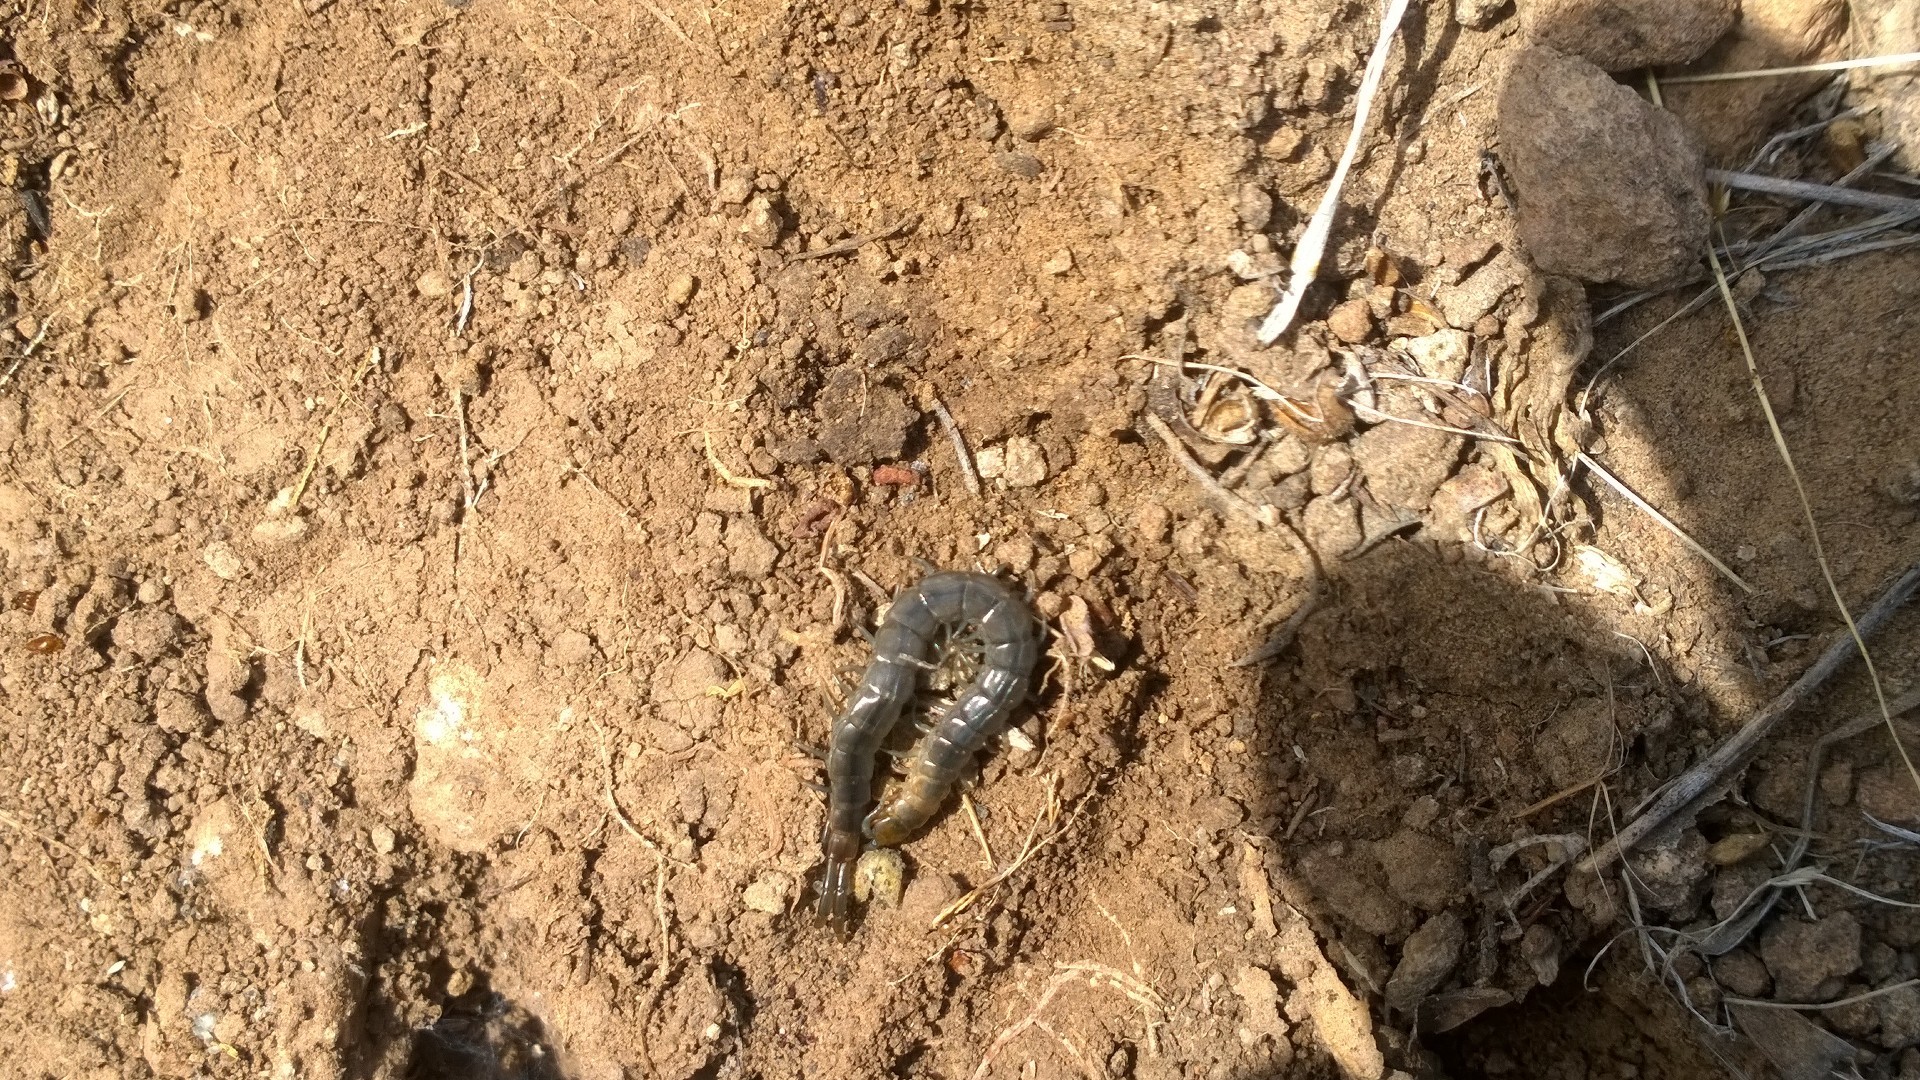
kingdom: Animalia
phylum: Arthropoda
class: Chilopoda
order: Scolopendromorpha
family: Scolopendridae
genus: Arthrorhabdus
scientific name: Arthrorhabdus pygmaeus
